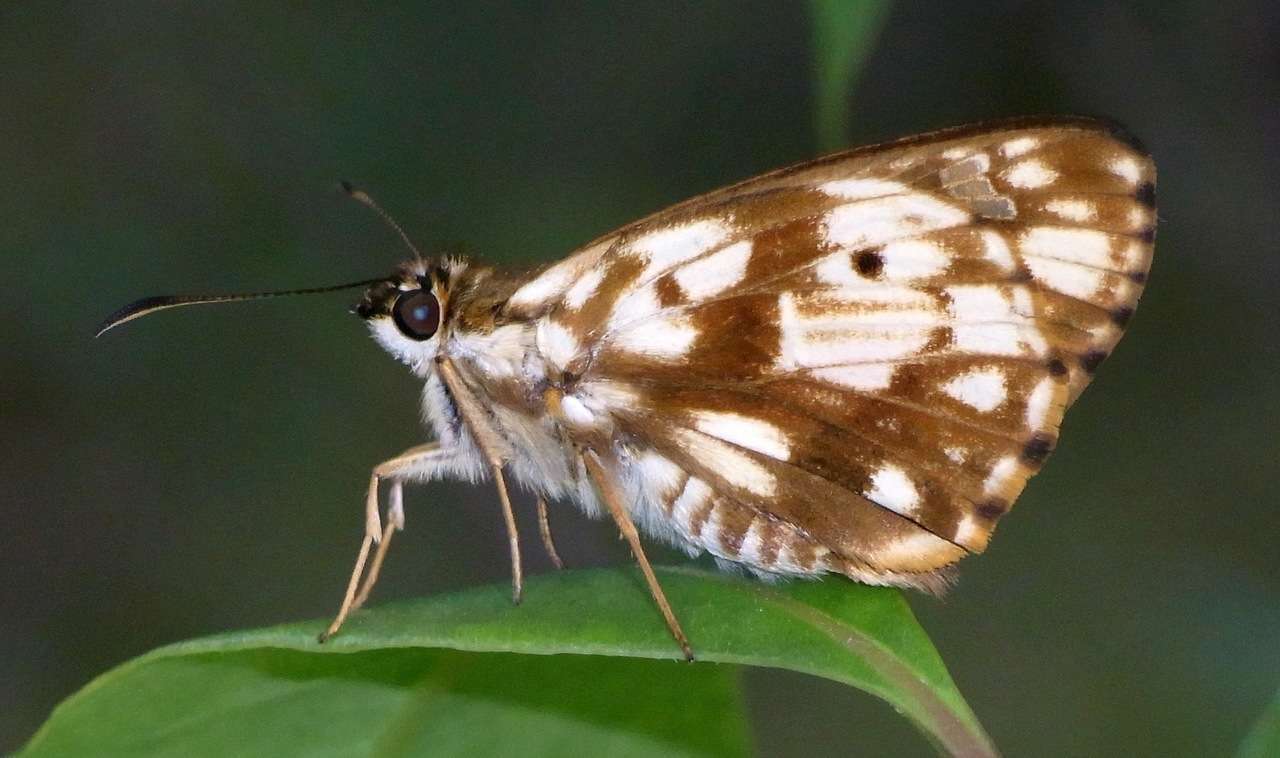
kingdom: Animalia
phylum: Arthropoda
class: Insecta
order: Lepidoptera
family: Hesperiidae
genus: Hesperilla
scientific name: Hesperilla mastersi
